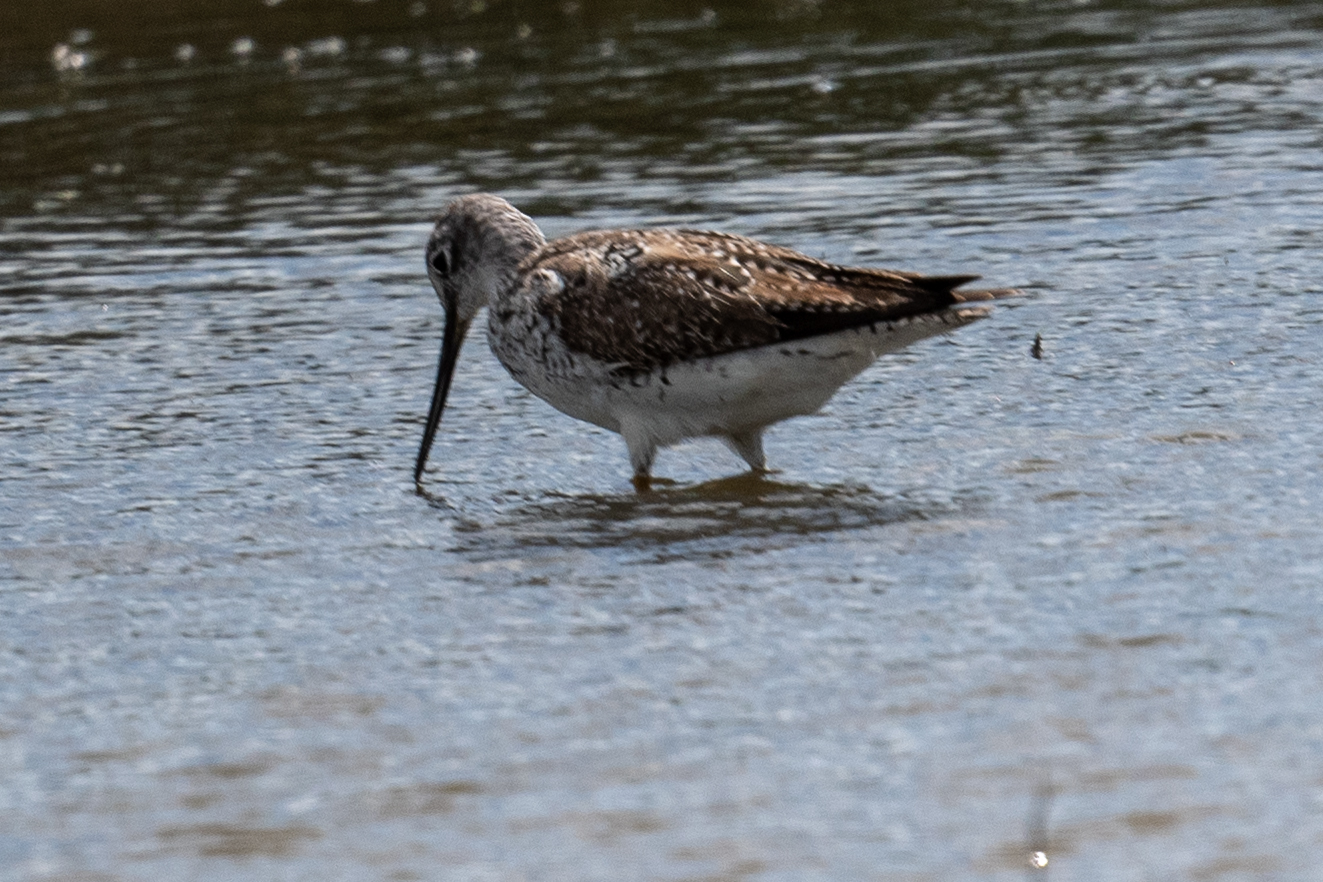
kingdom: Animalia
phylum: Chordata
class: Aves
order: Charadriiformes
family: Scolopacidae
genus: Tringa
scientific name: Tringa melanoleuca
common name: Greater yellowlegs
